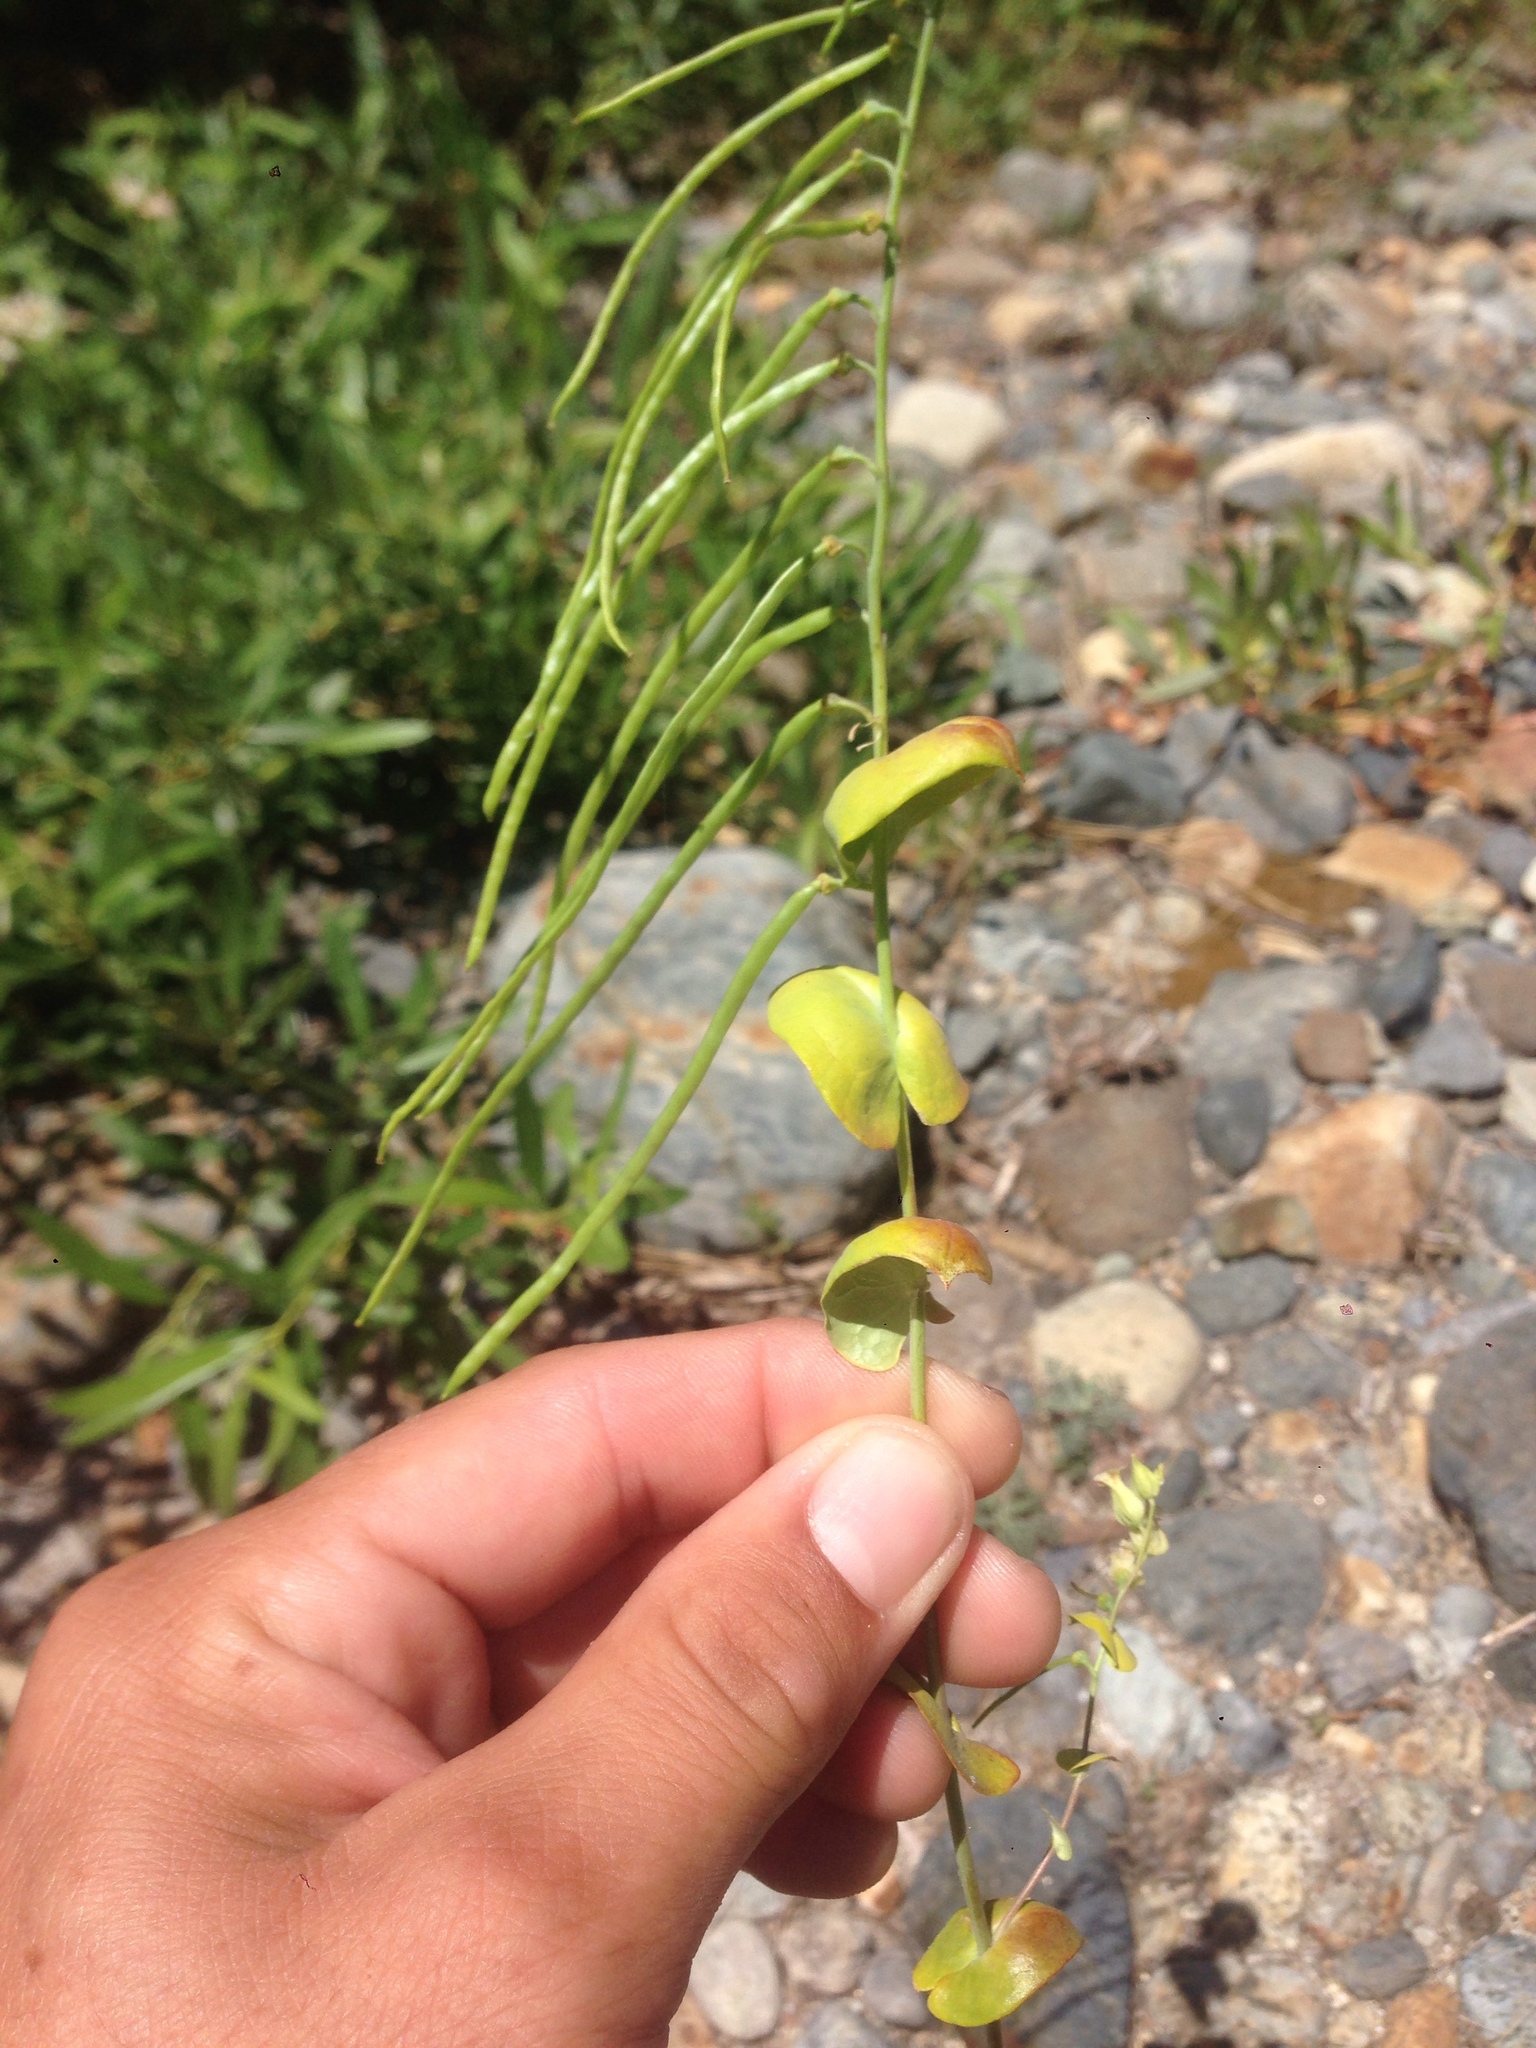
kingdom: Plantae
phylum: Tracheophyta
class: Magnoliopsida
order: Brassicales
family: Brassicaceae
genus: Streptanthus
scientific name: Streptanthus tortuosus
